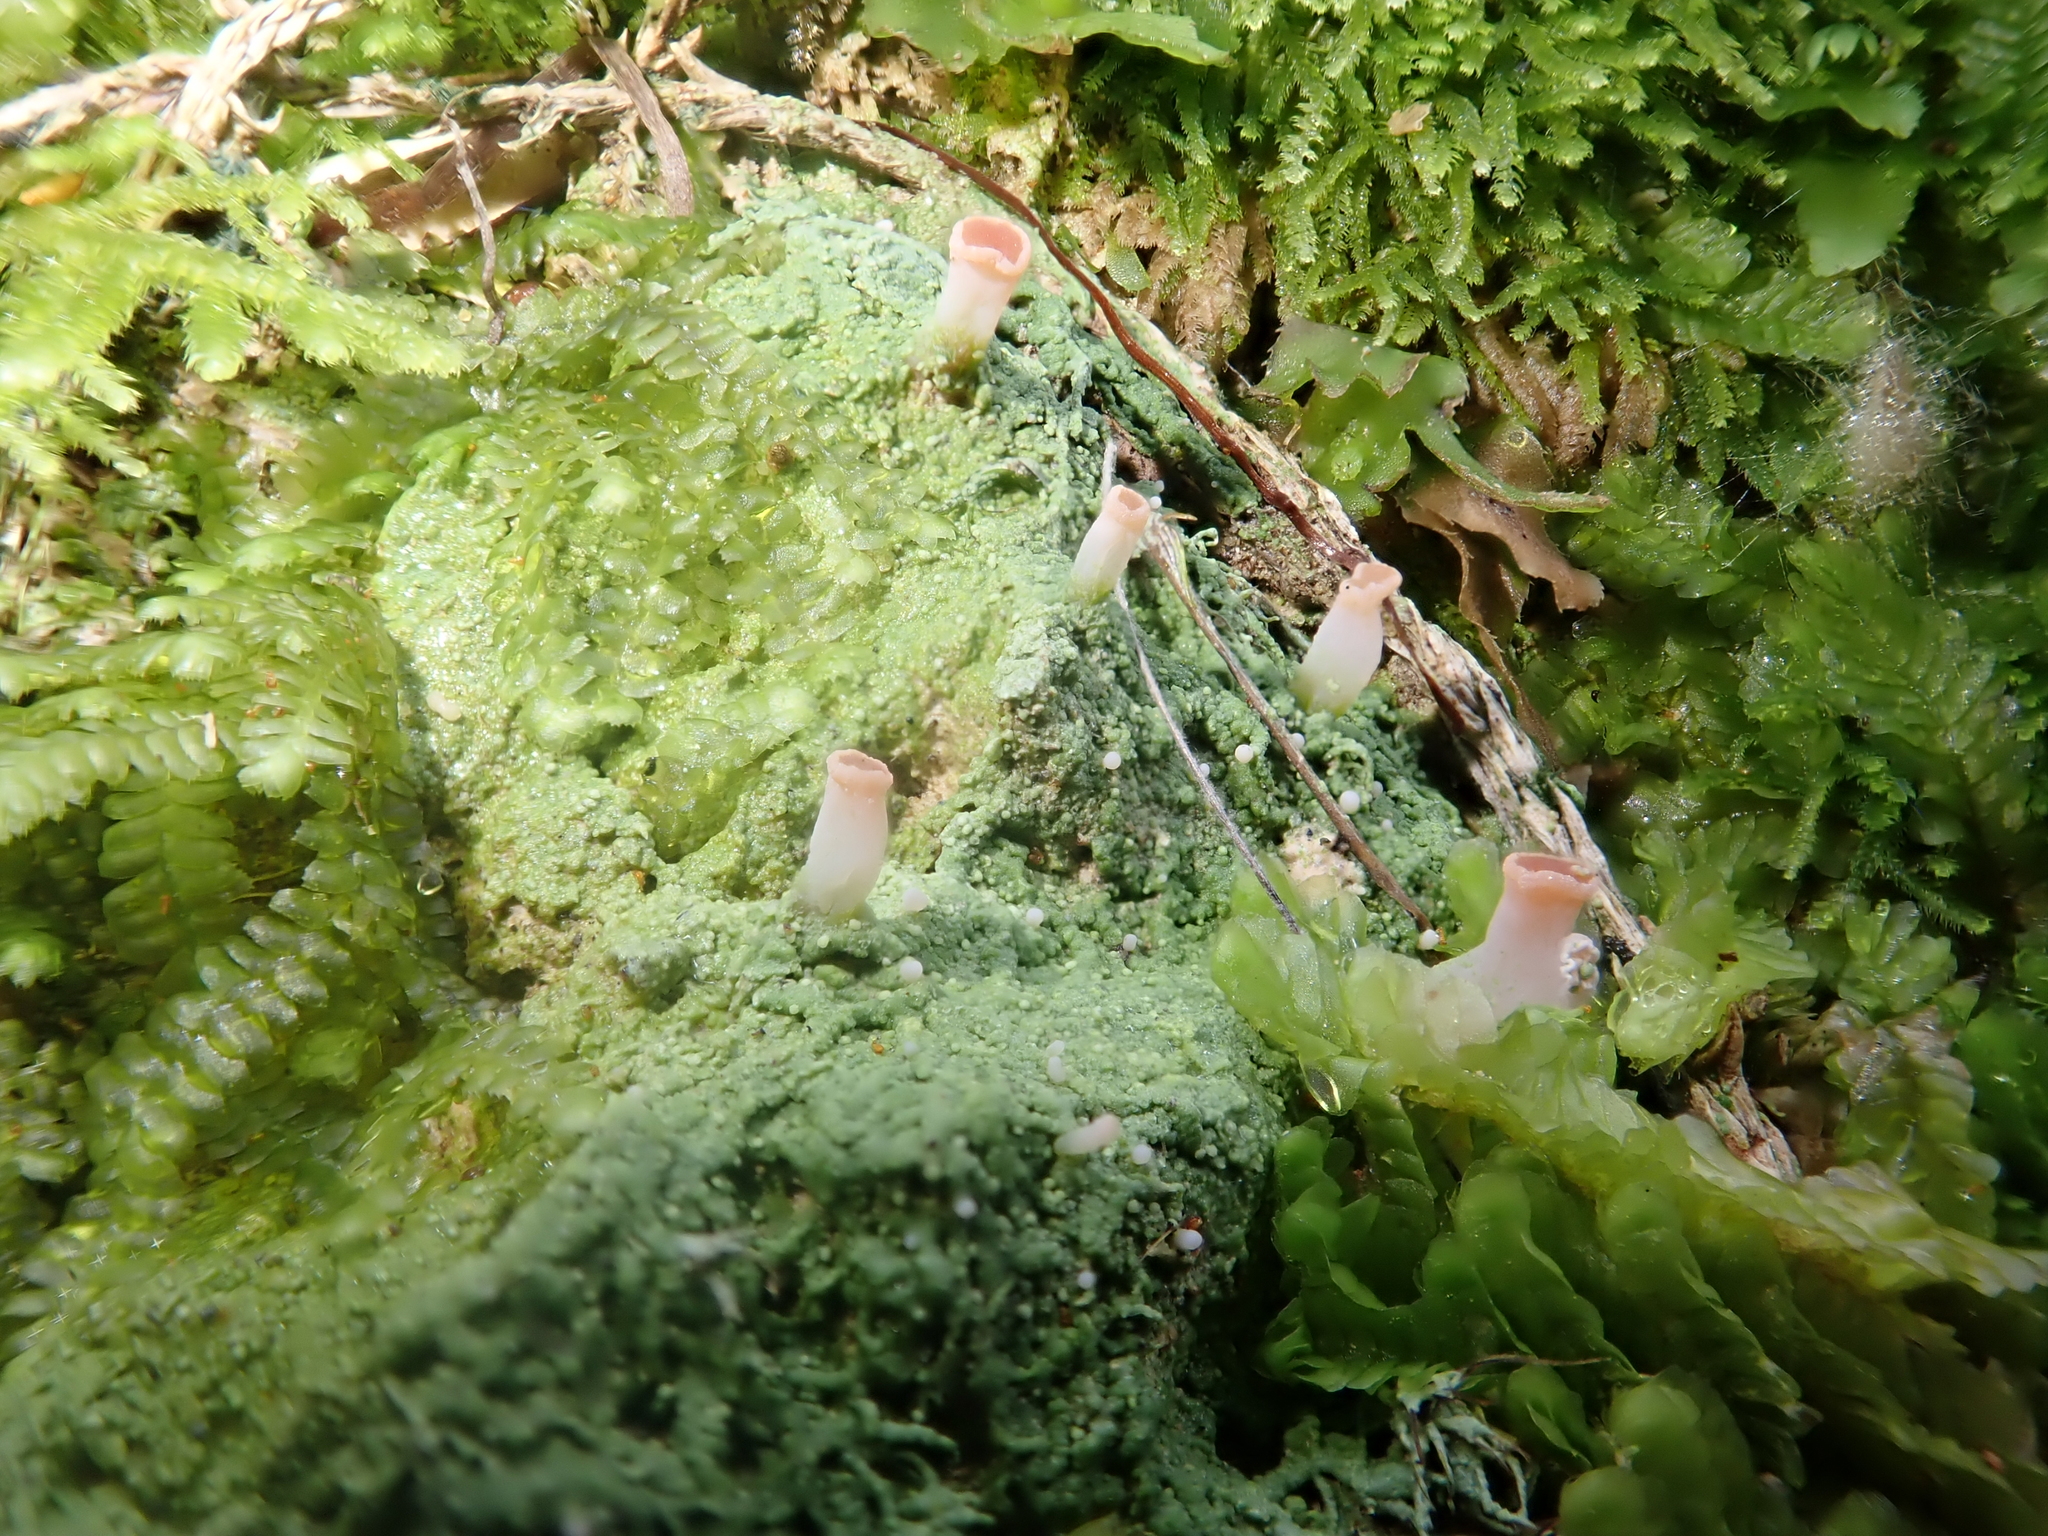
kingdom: Fungi
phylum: Ascomycota
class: Lecanoromycetes
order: Baeomycetales
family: Baeomycetaceae
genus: Baeomyces
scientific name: Baeomyces heteromorphus
